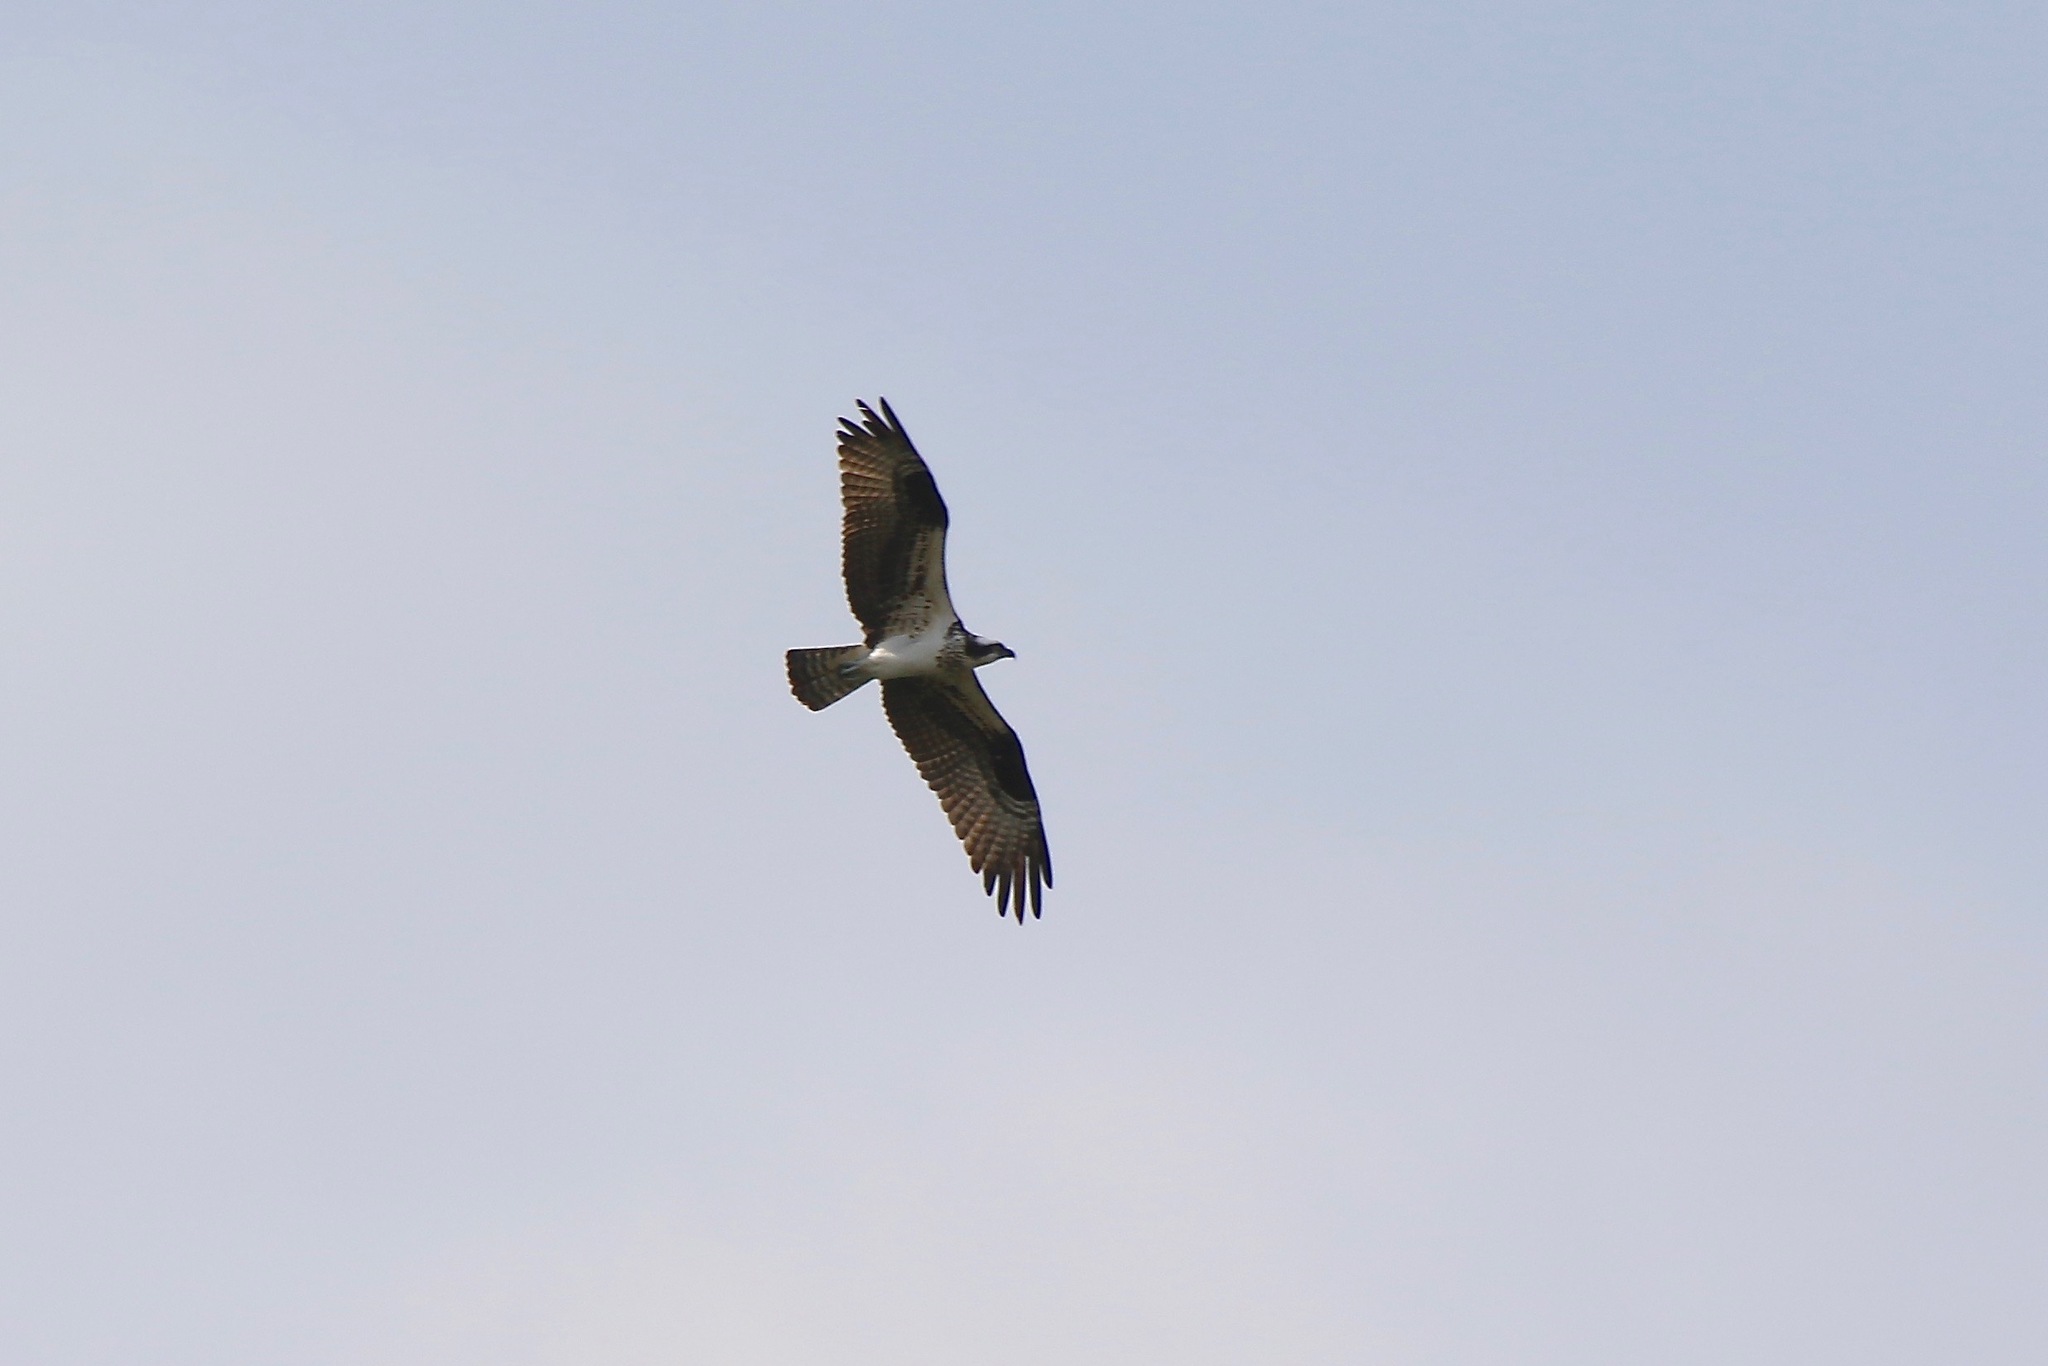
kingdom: Animalia
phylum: Chordata
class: Aves
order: Accipitriformes
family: Pandionidae
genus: Pandion
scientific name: Pandion haliaetus
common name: Osprey
